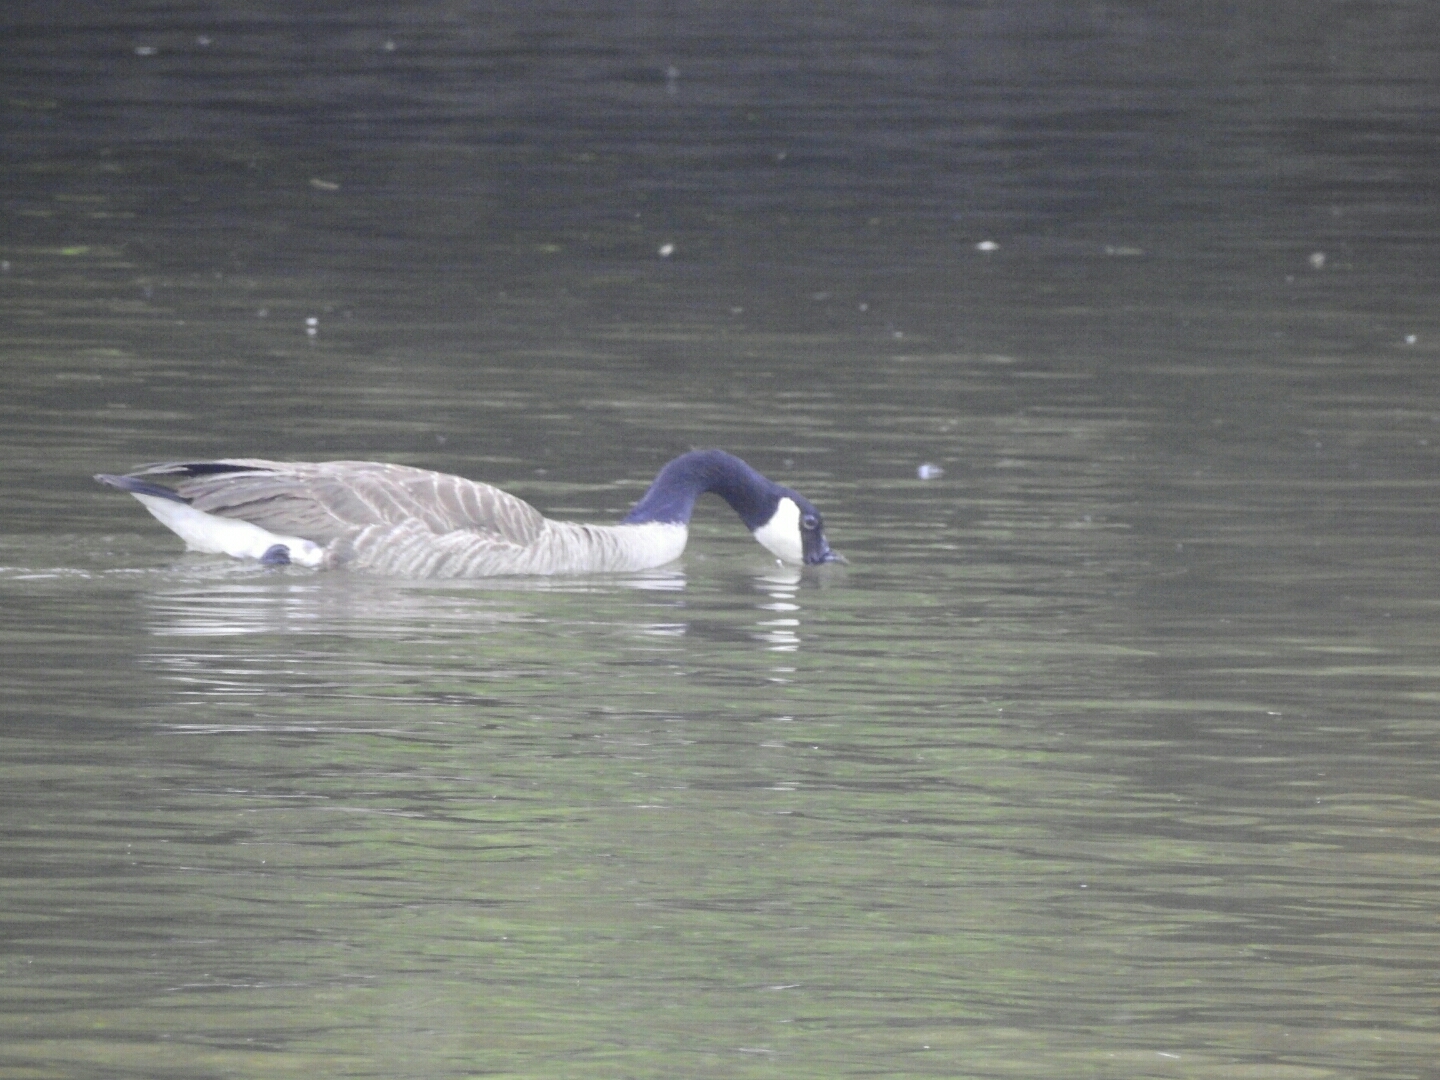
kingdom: Animalia
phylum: Chordata
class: Aves
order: Anseriformes
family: Anatidae
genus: Branta
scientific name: Branta canadensis
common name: Canada goose
